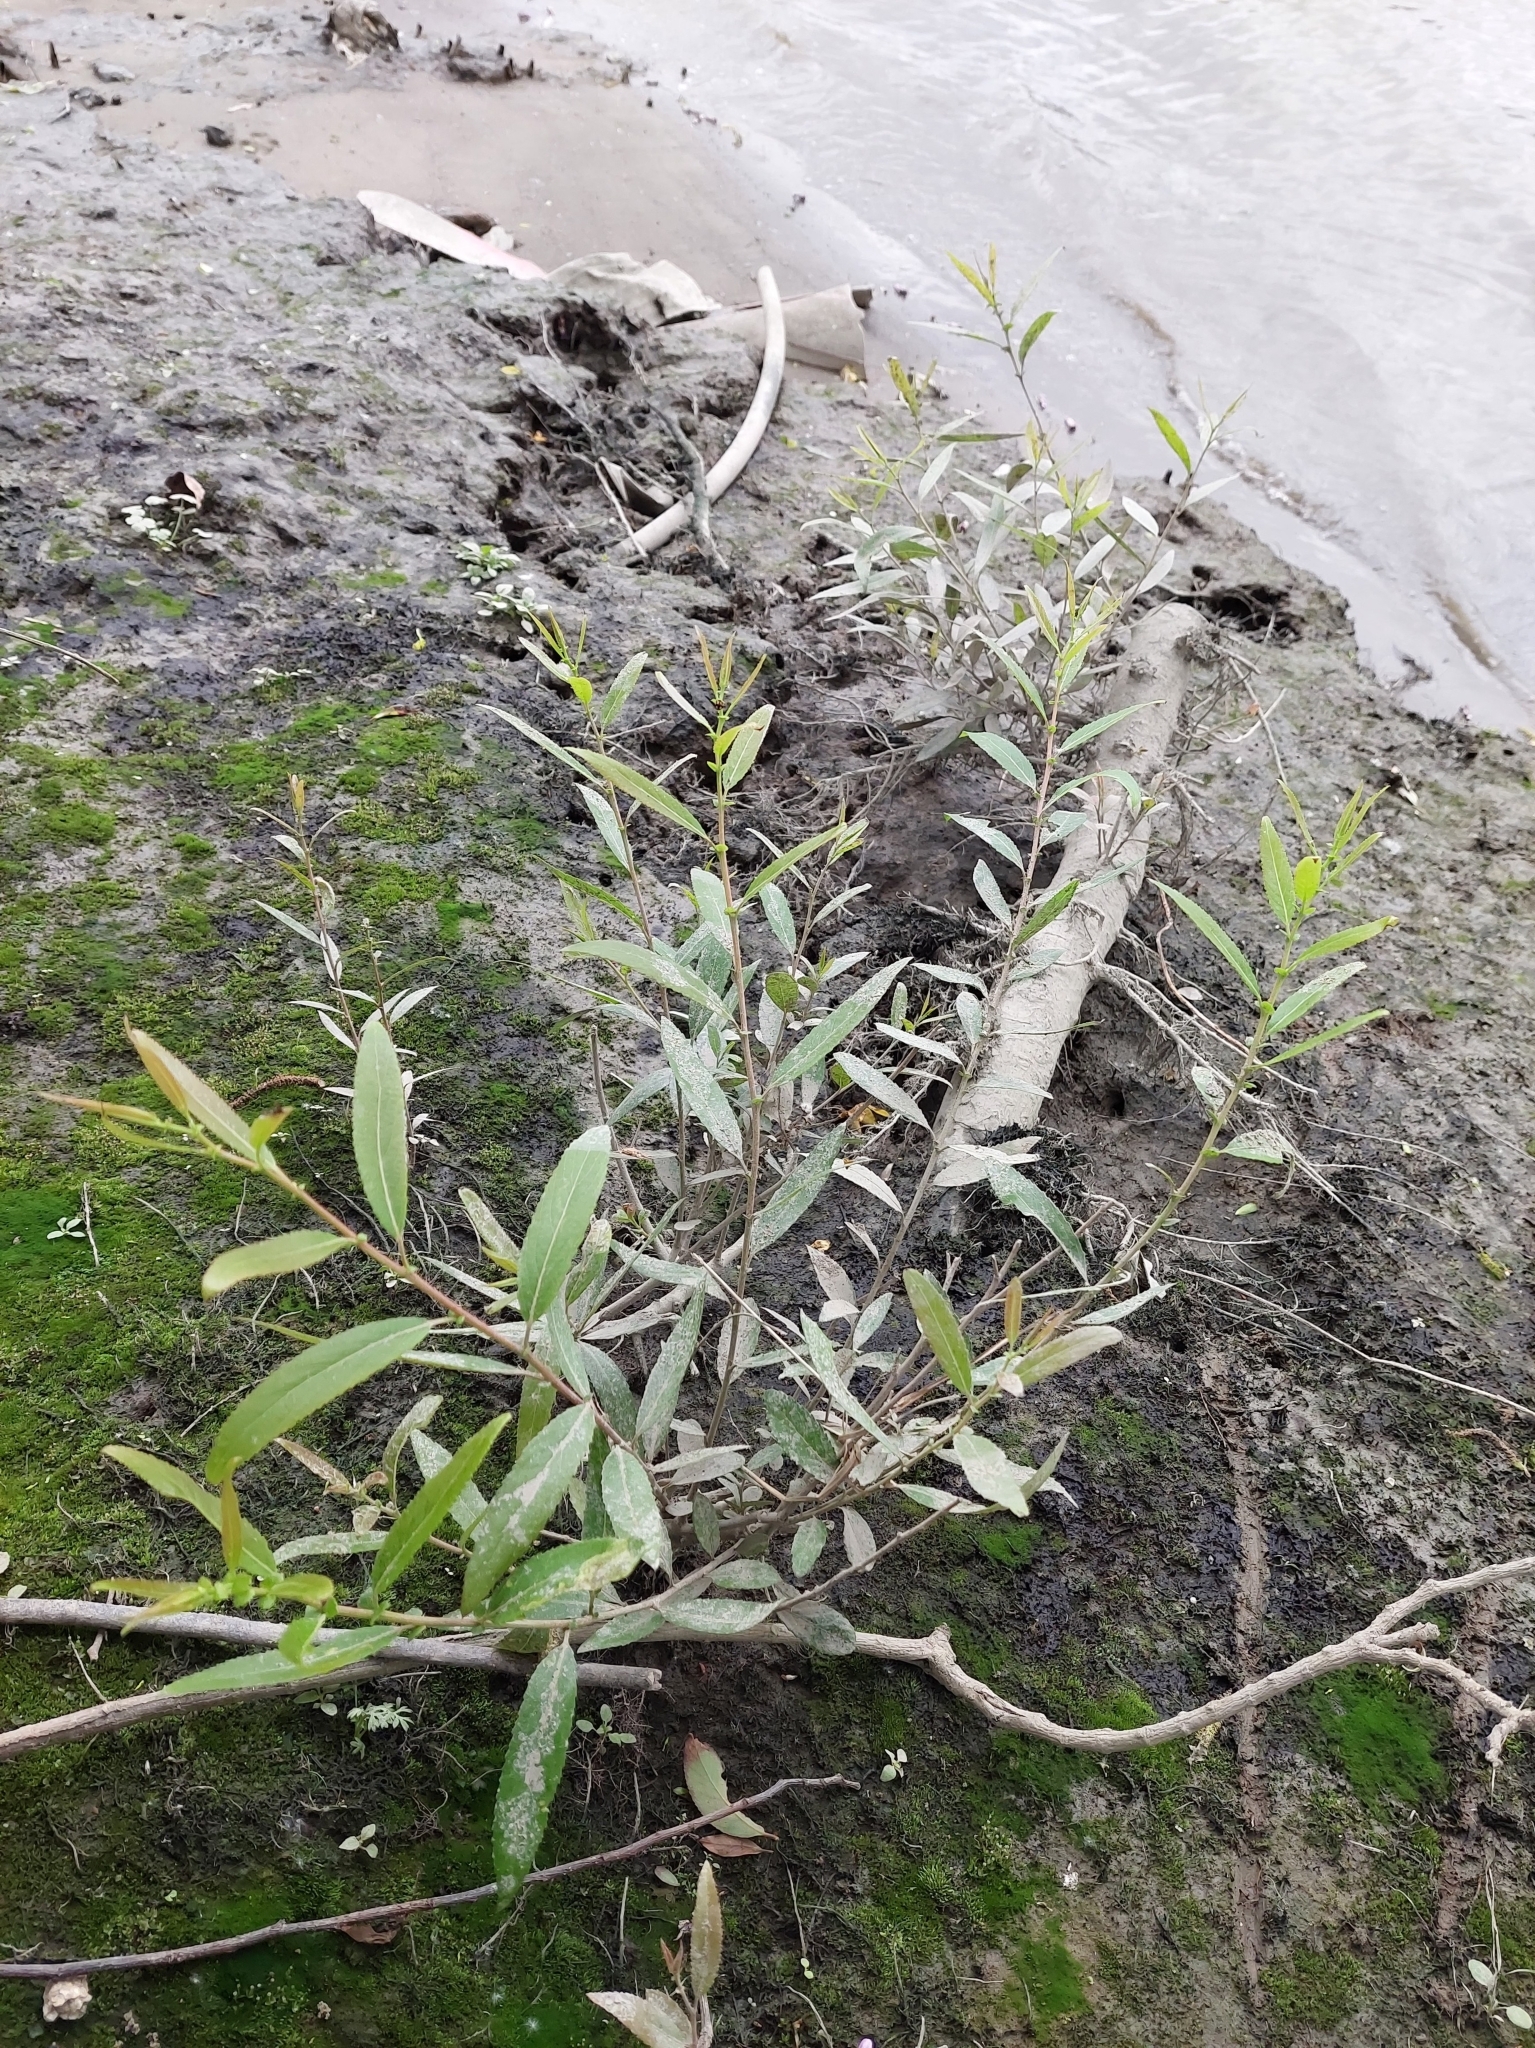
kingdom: Plantae
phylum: Tracheophyta
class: Magnoliopsida
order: Malpighiales
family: Salicaceae
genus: Salix
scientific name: Salix mesnyi
